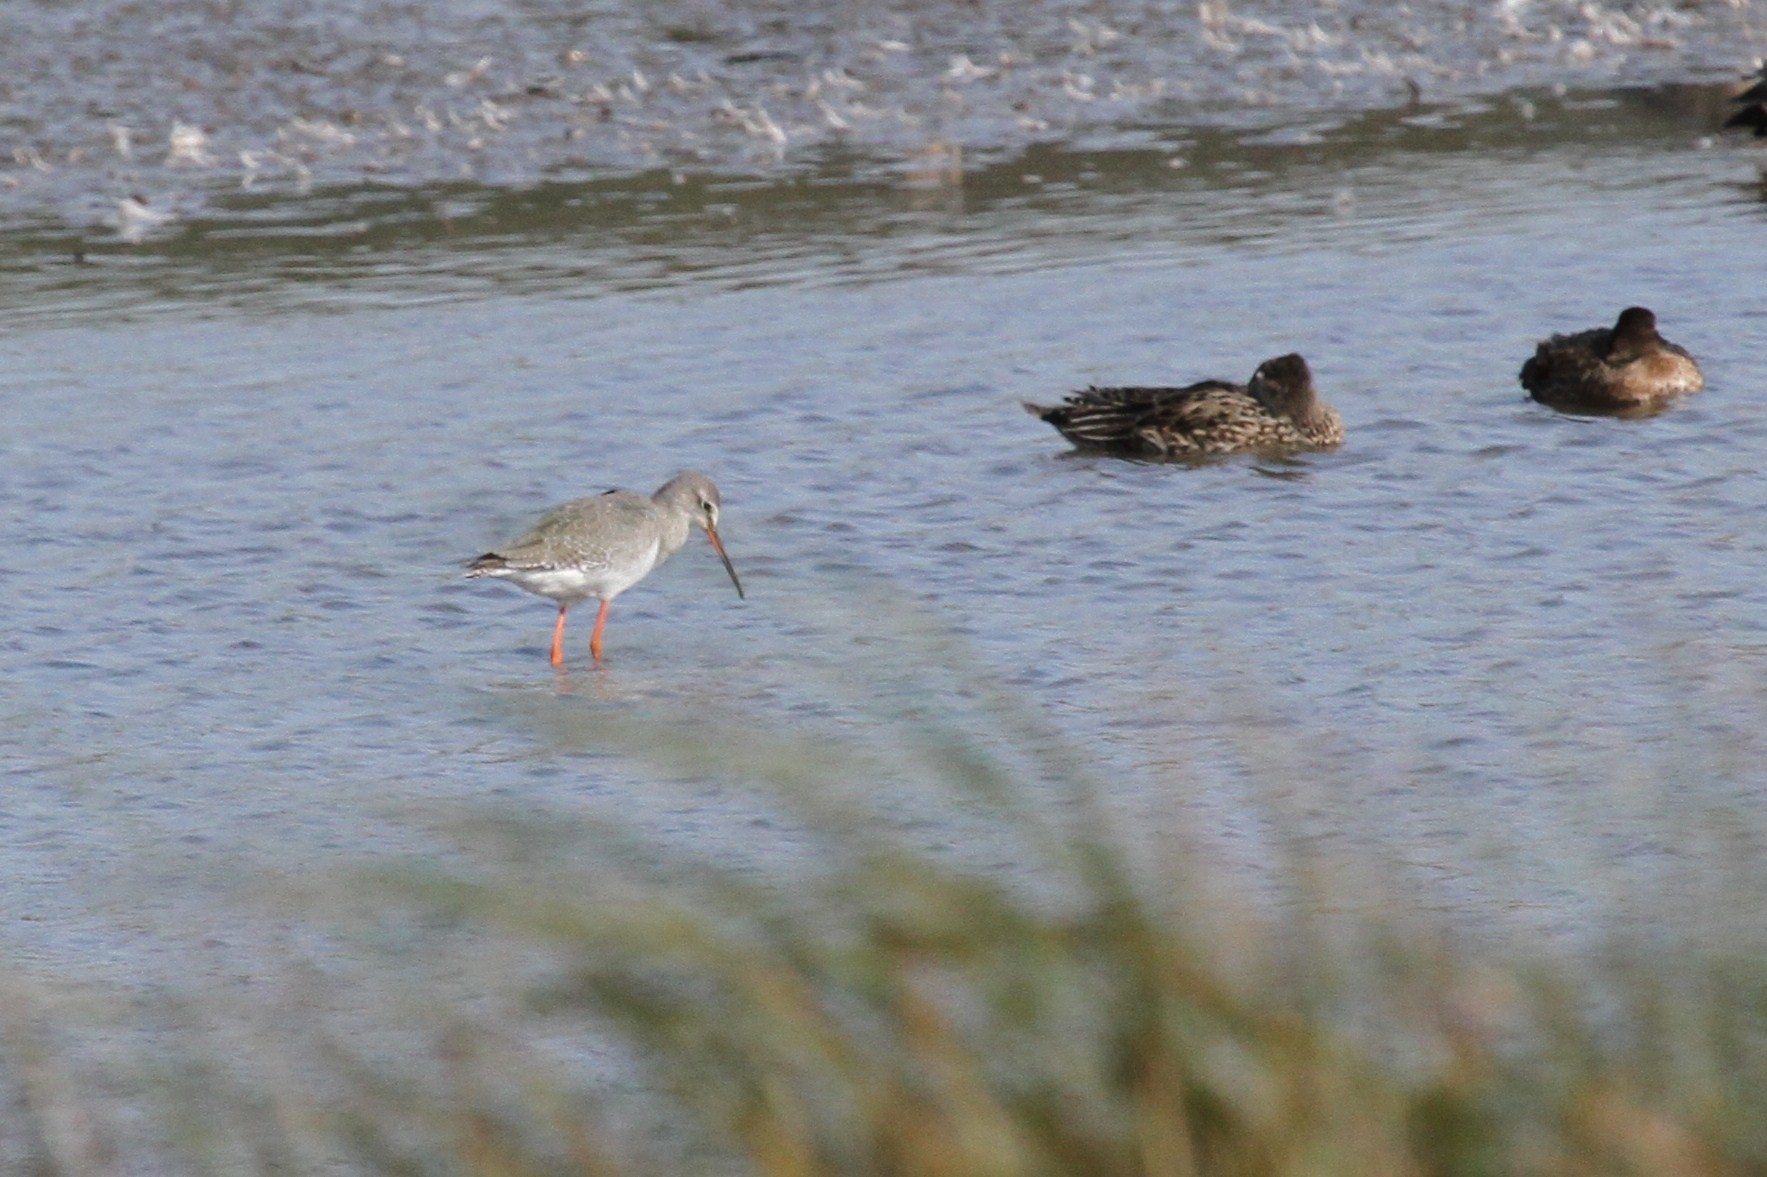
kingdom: Animalia
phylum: Chordata
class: Aves
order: Charadriiformes
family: Scolopacidae
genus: Tringa
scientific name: Tringa erythropus
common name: Spotted redshank
